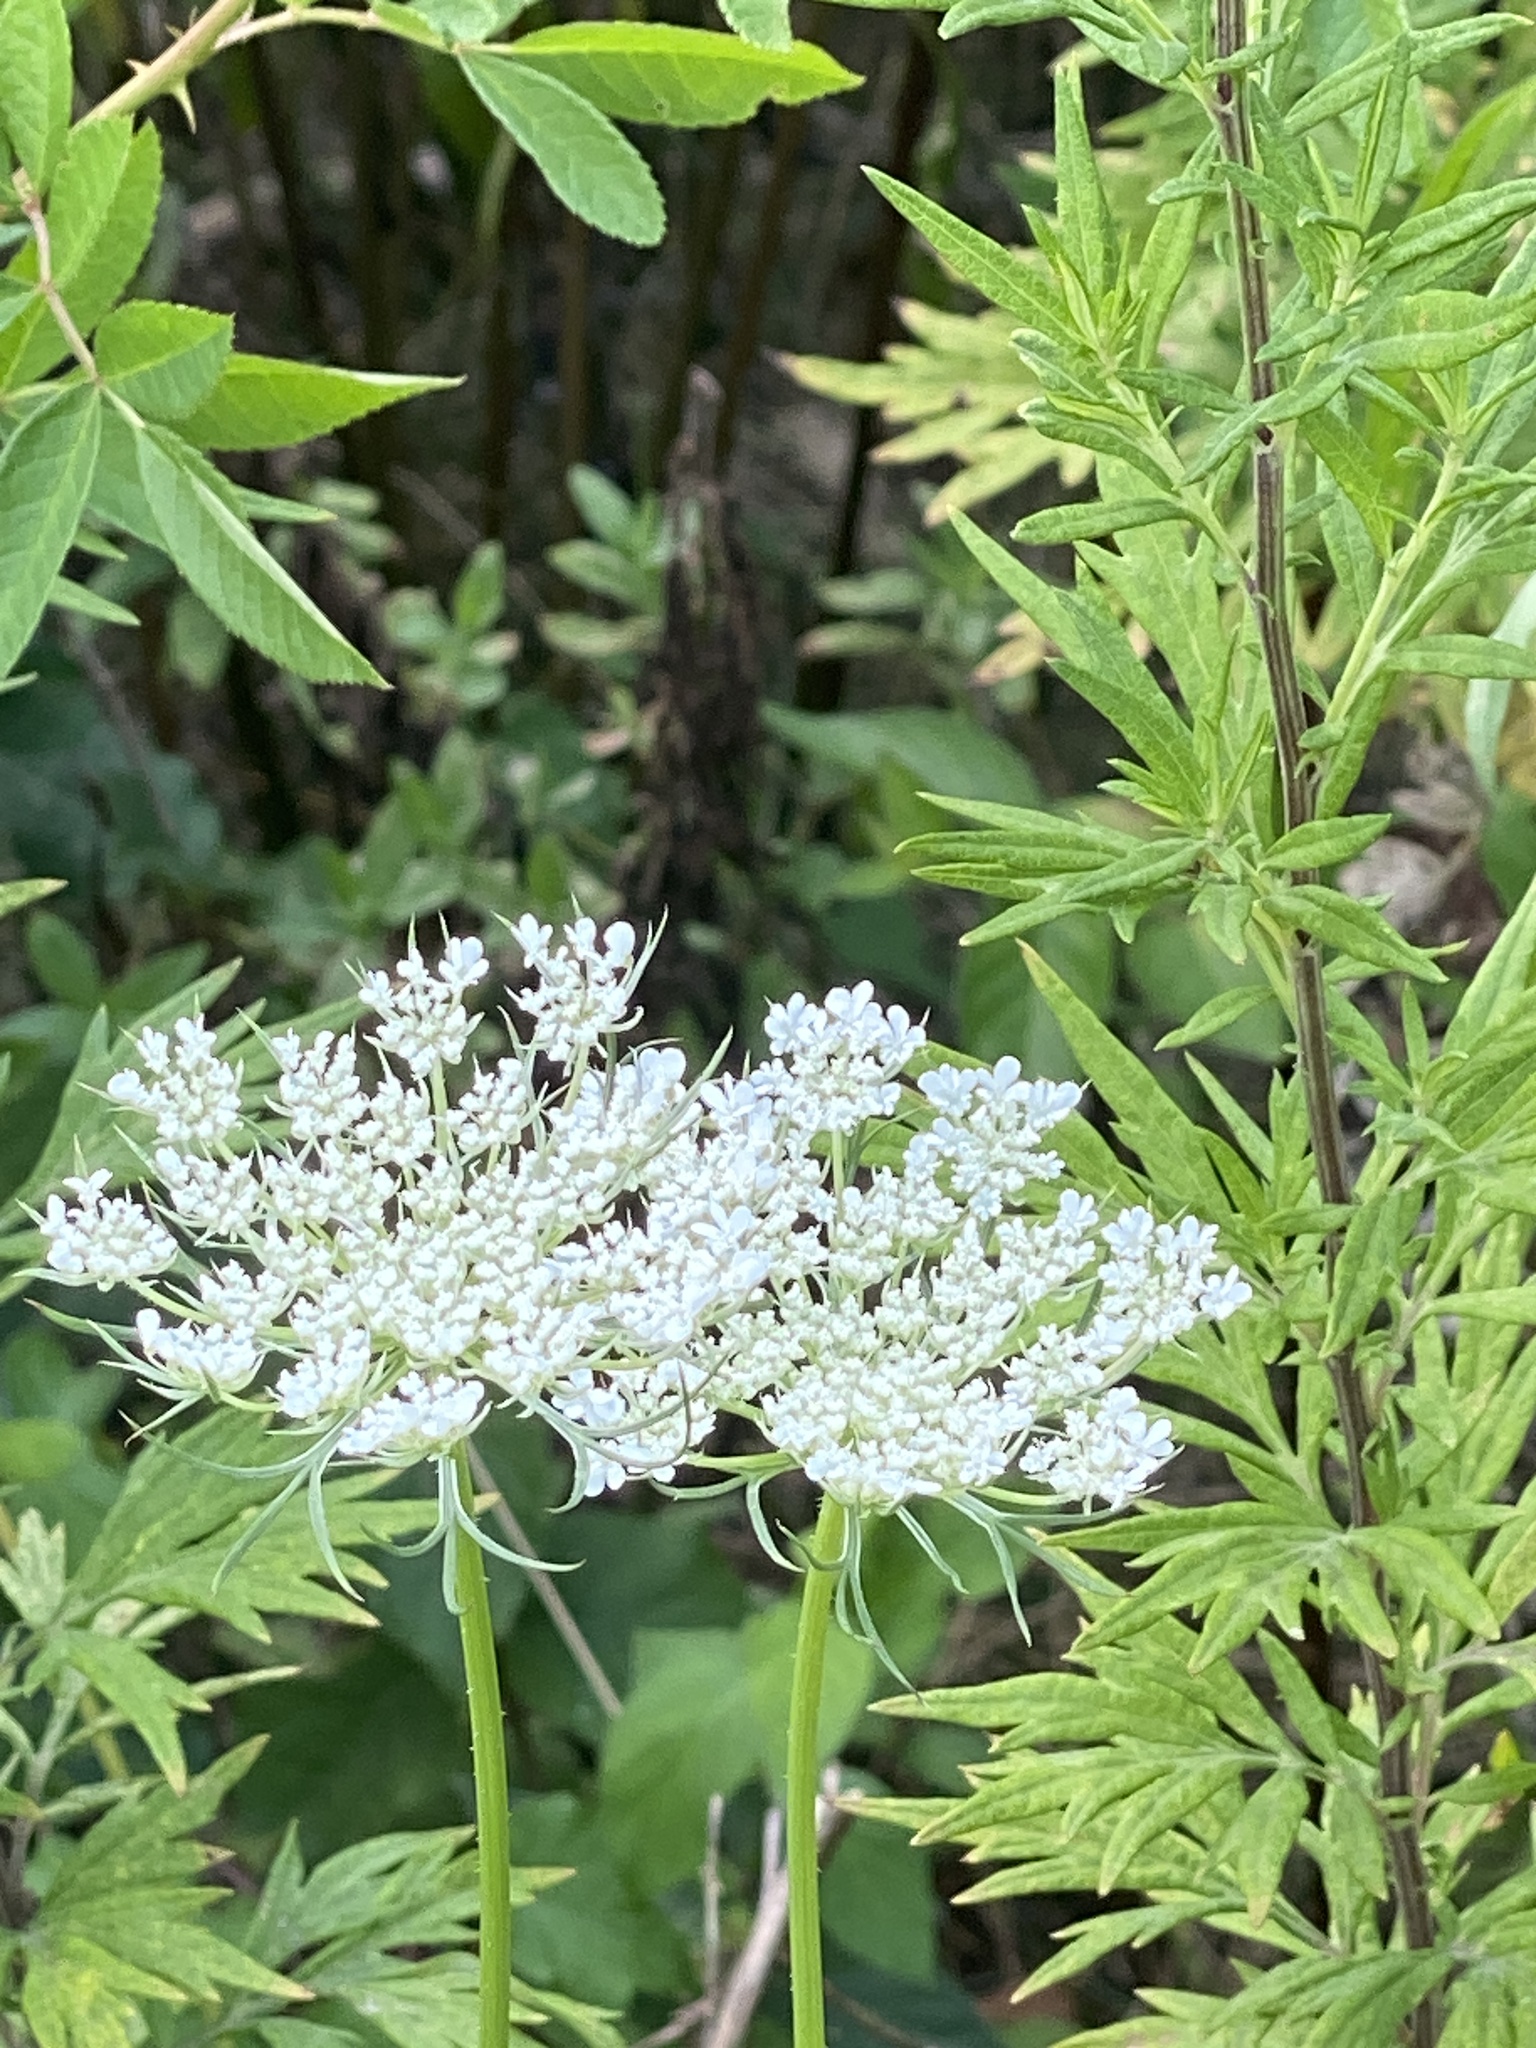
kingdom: Plantae
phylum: Tracheophyta
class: Magnoliopsida
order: Apiales
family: Apiaceae
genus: Daucus
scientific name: Daucus carota
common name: Wild carrot
